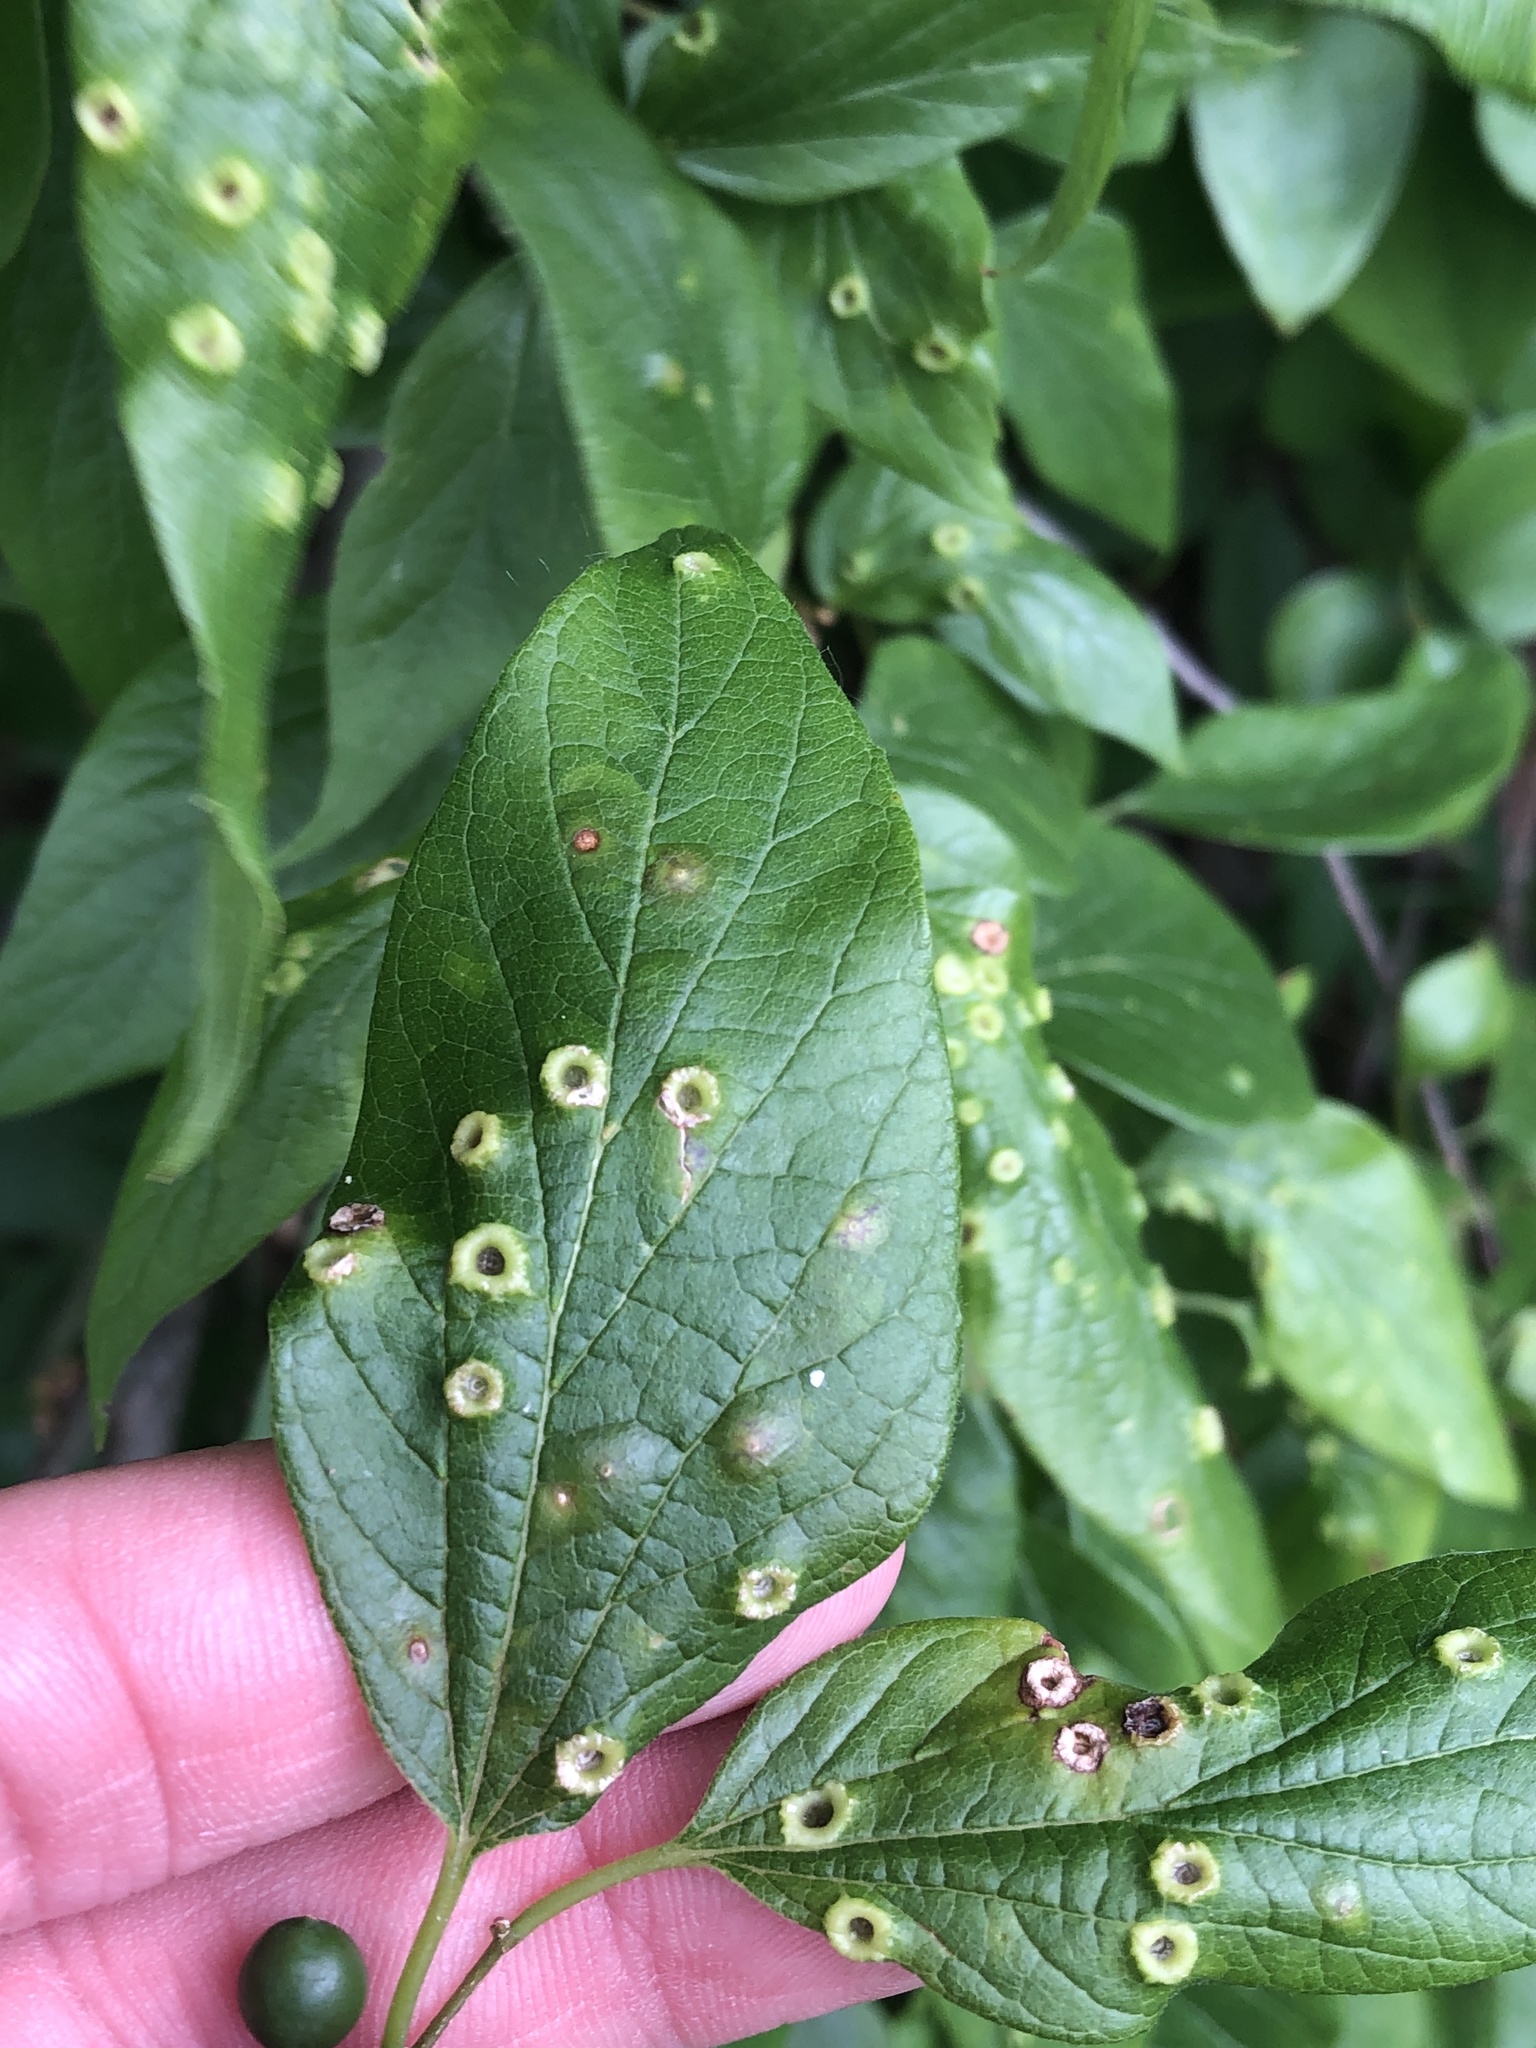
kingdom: Animalia
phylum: Arthropoda
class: Insecta
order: Hemiptera
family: Aphalaridae
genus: Pachypsylla
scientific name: Pachypsylla celtidismamma
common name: Hackberry nipplegall psyllid
